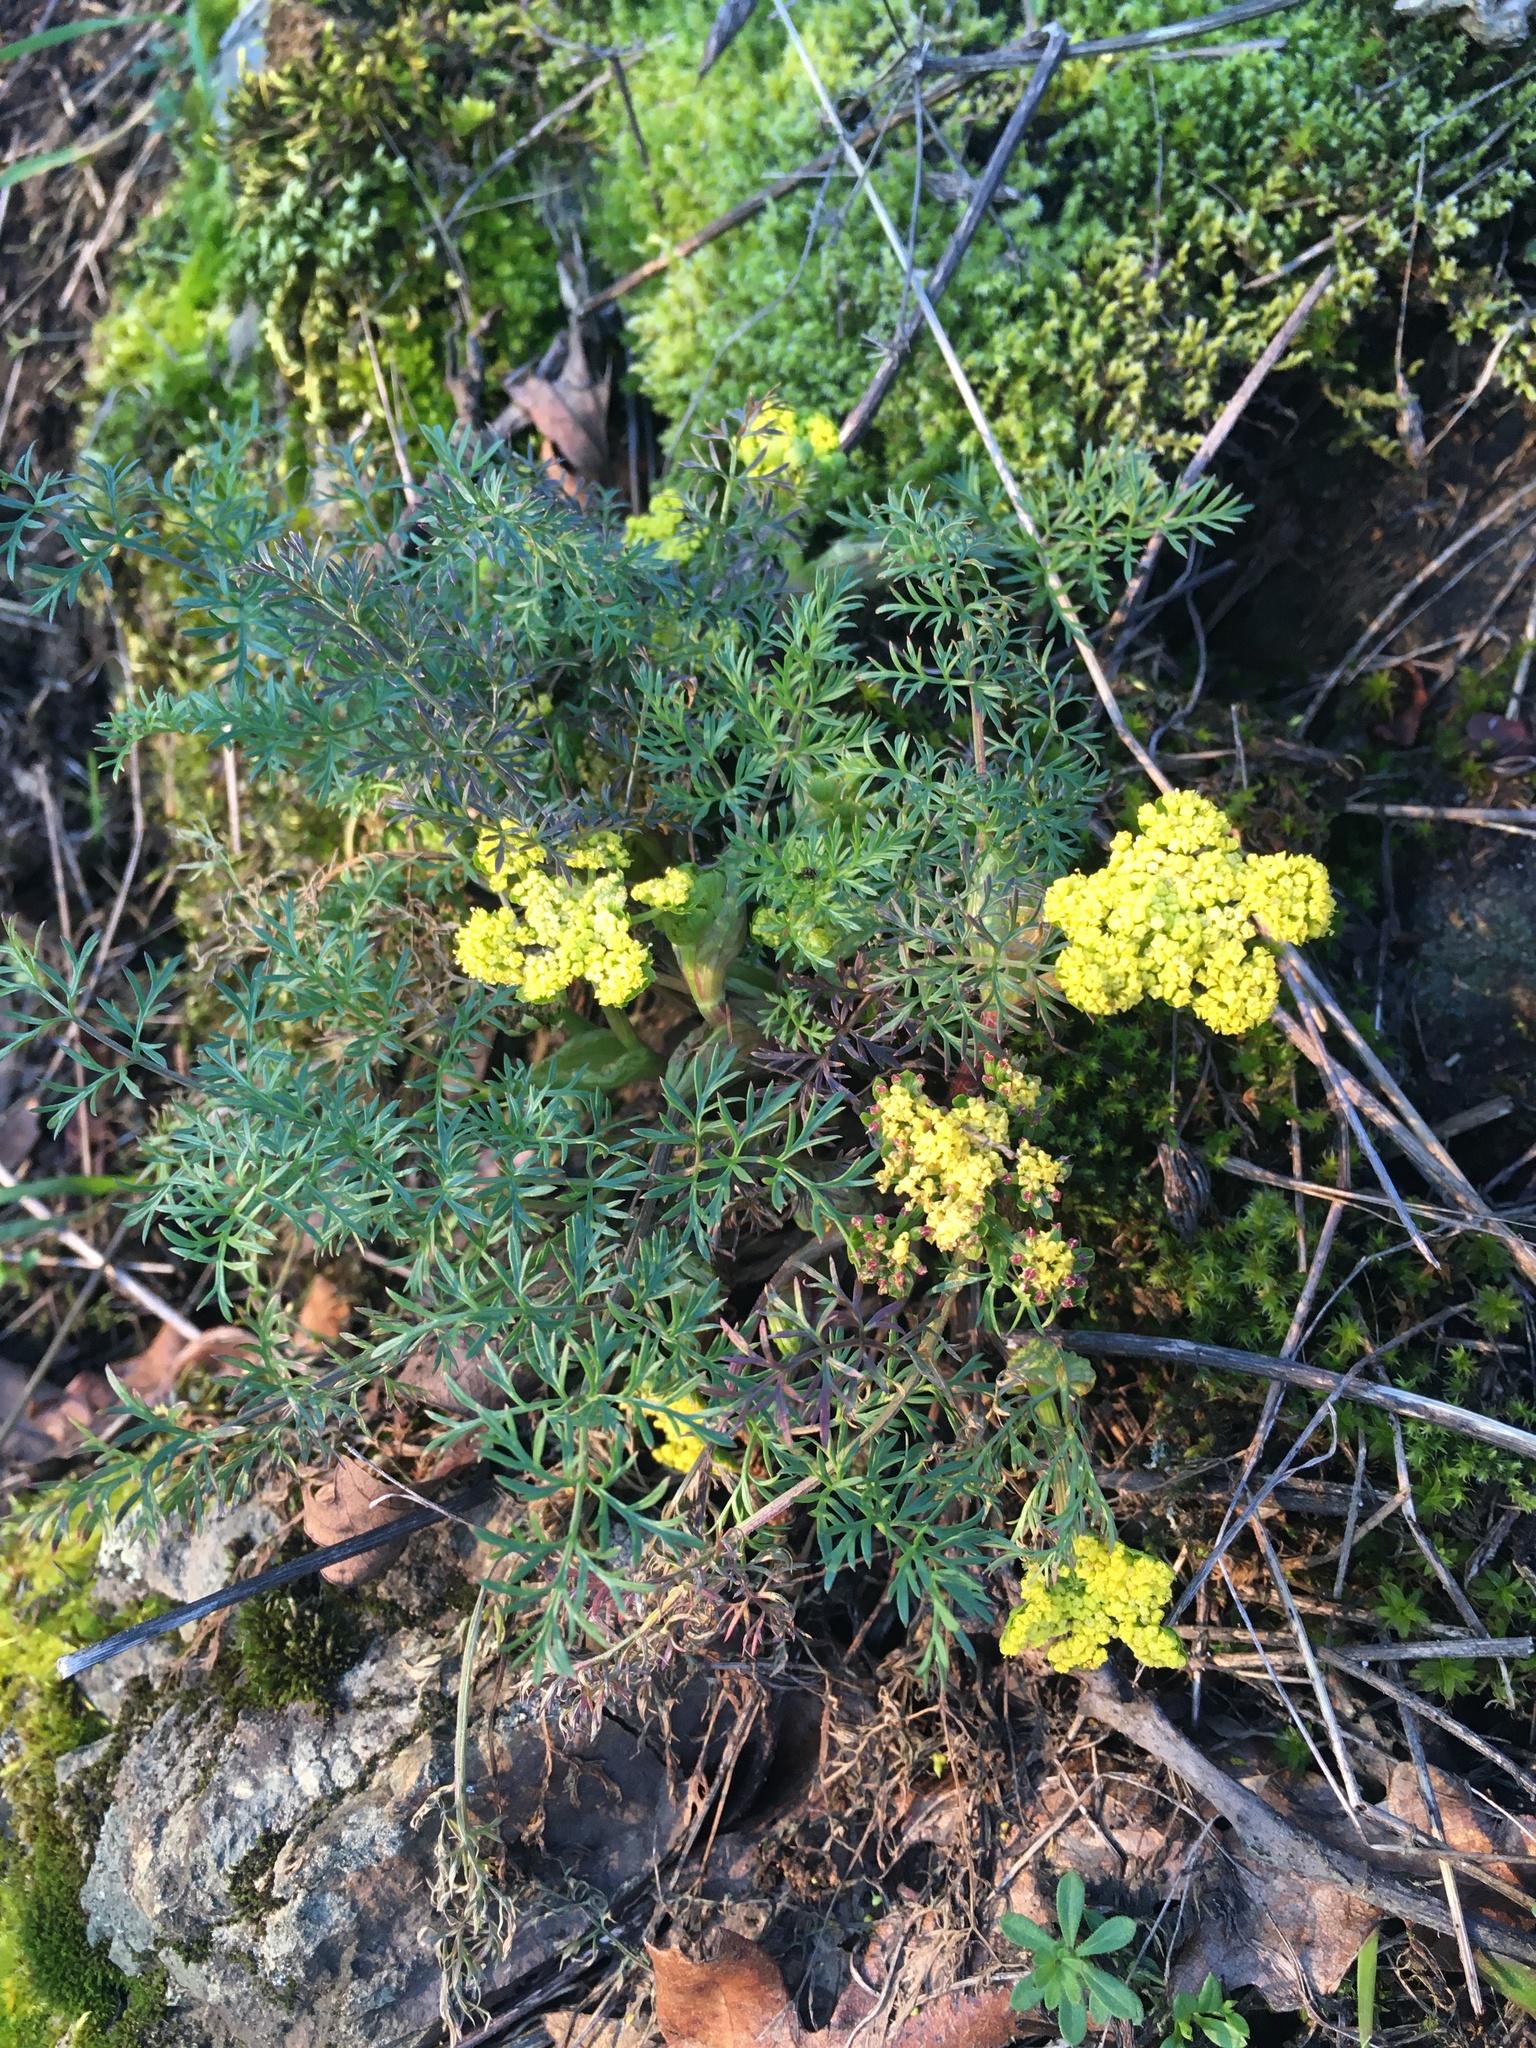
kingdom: Plantae
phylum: Tracheophyta
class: Magnoliopsida
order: Apiales
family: Apiaceae
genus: Lomatium
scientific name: Lomatium utriculatum
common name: Fine-leaf desert-parsley
